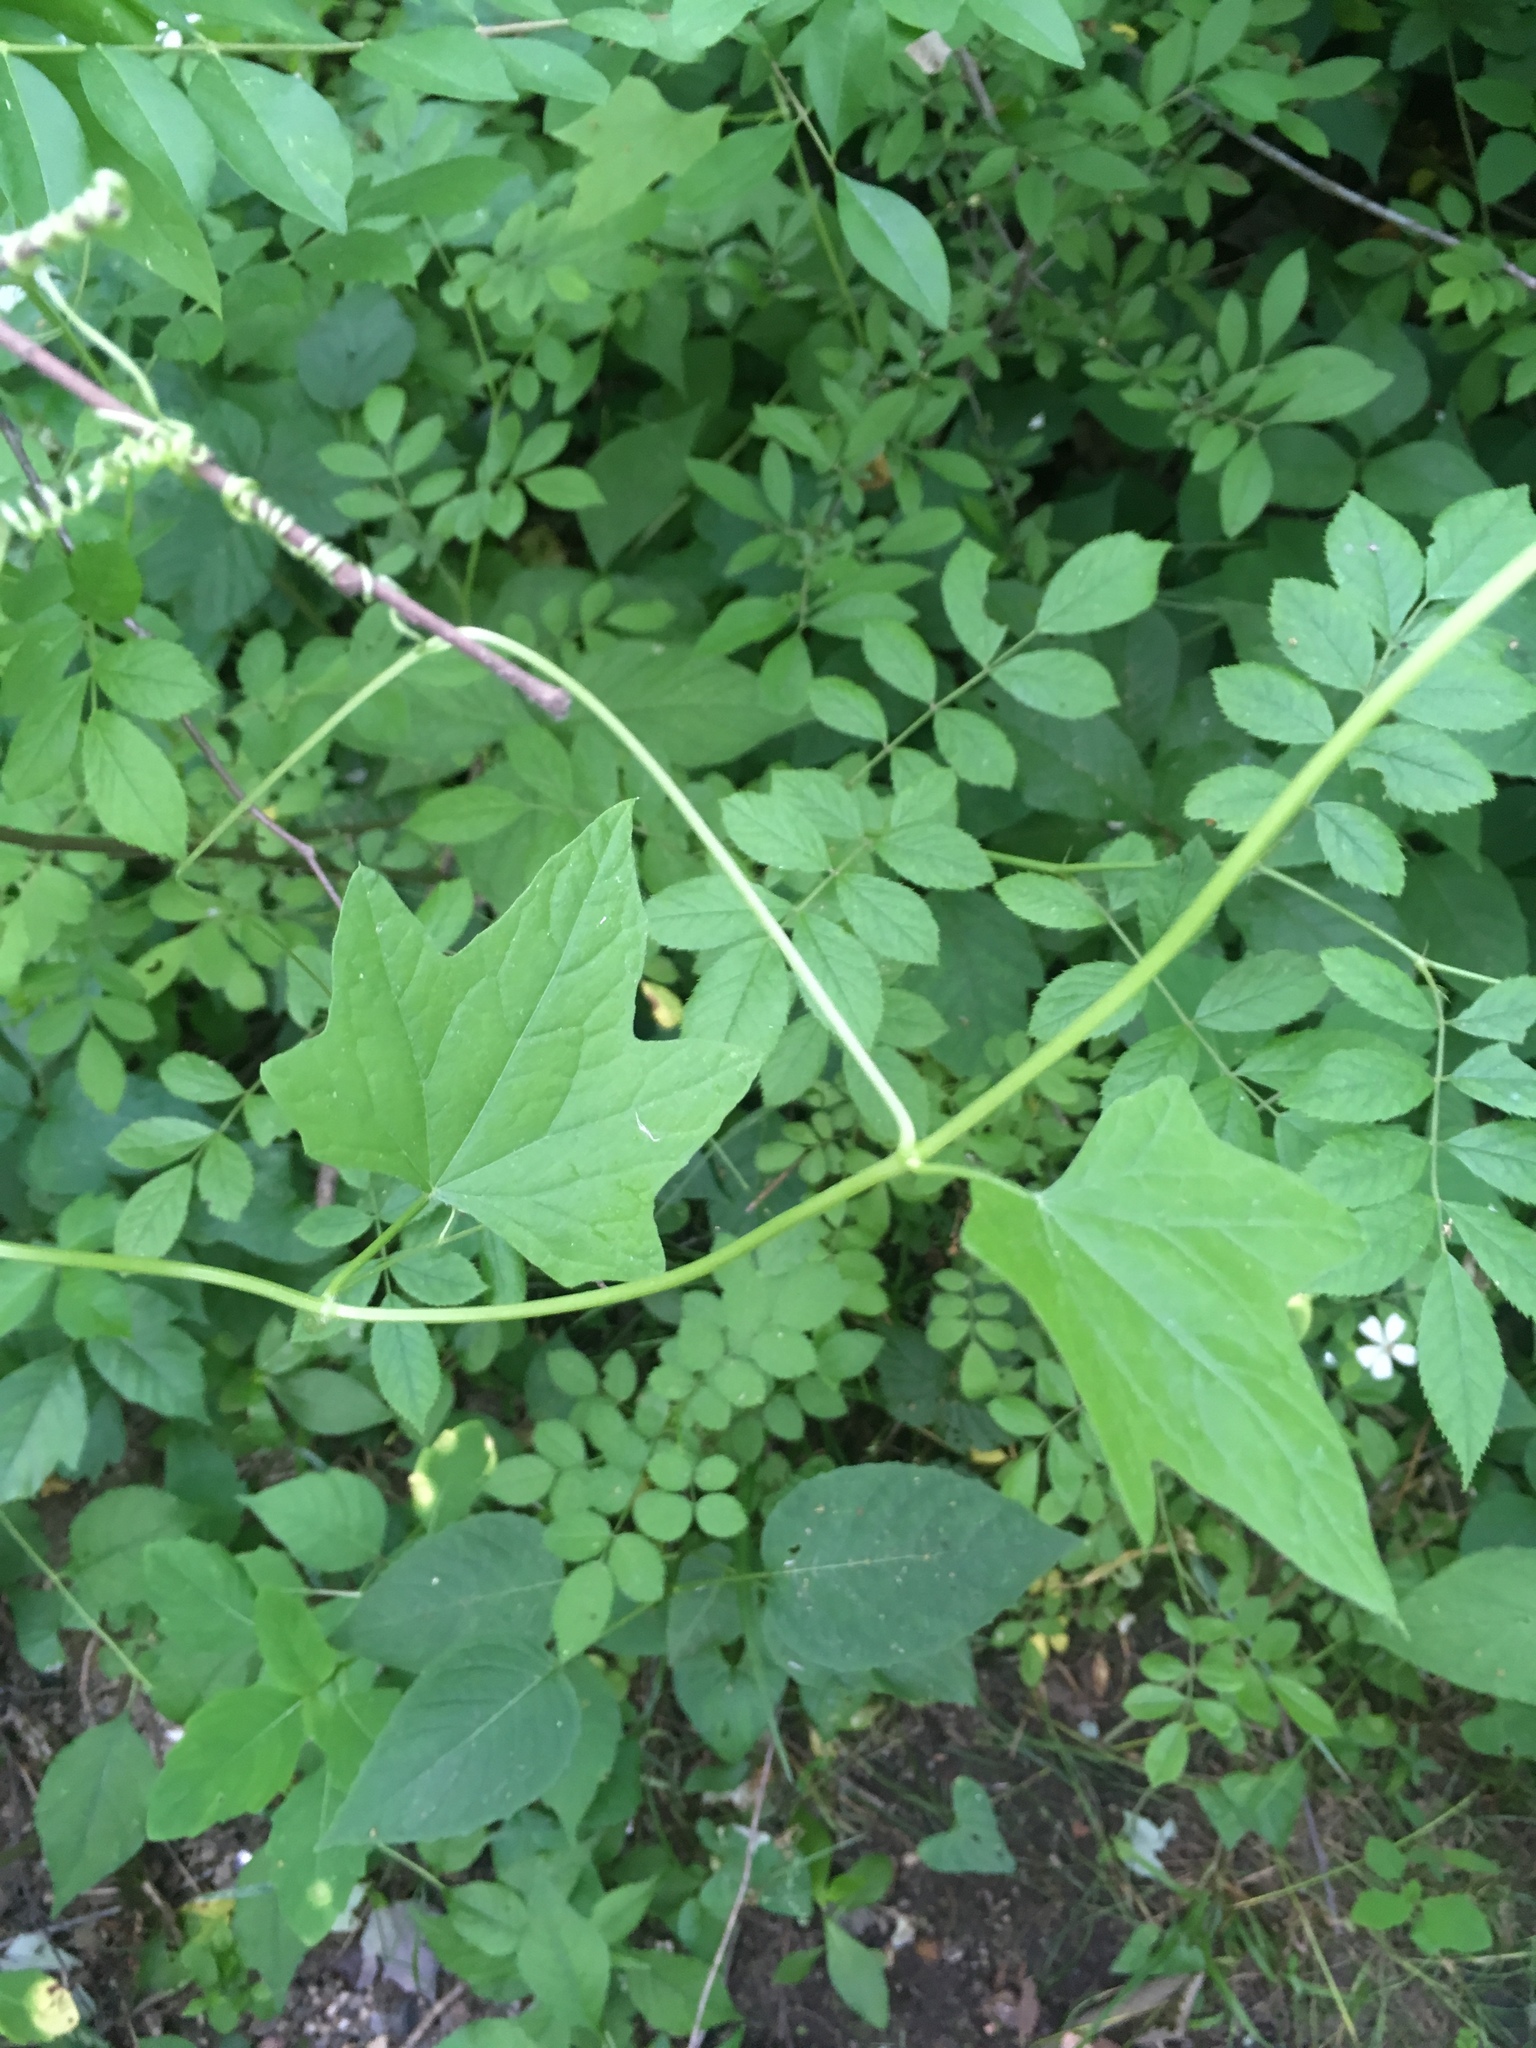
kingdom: Plantae
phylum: Tracheophyta
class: Magnoliopsida
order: Cucurbitales
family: Cucurbitaceae
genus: Echinocystis
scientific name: Echinocystis lobata
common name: Wild cucumber
